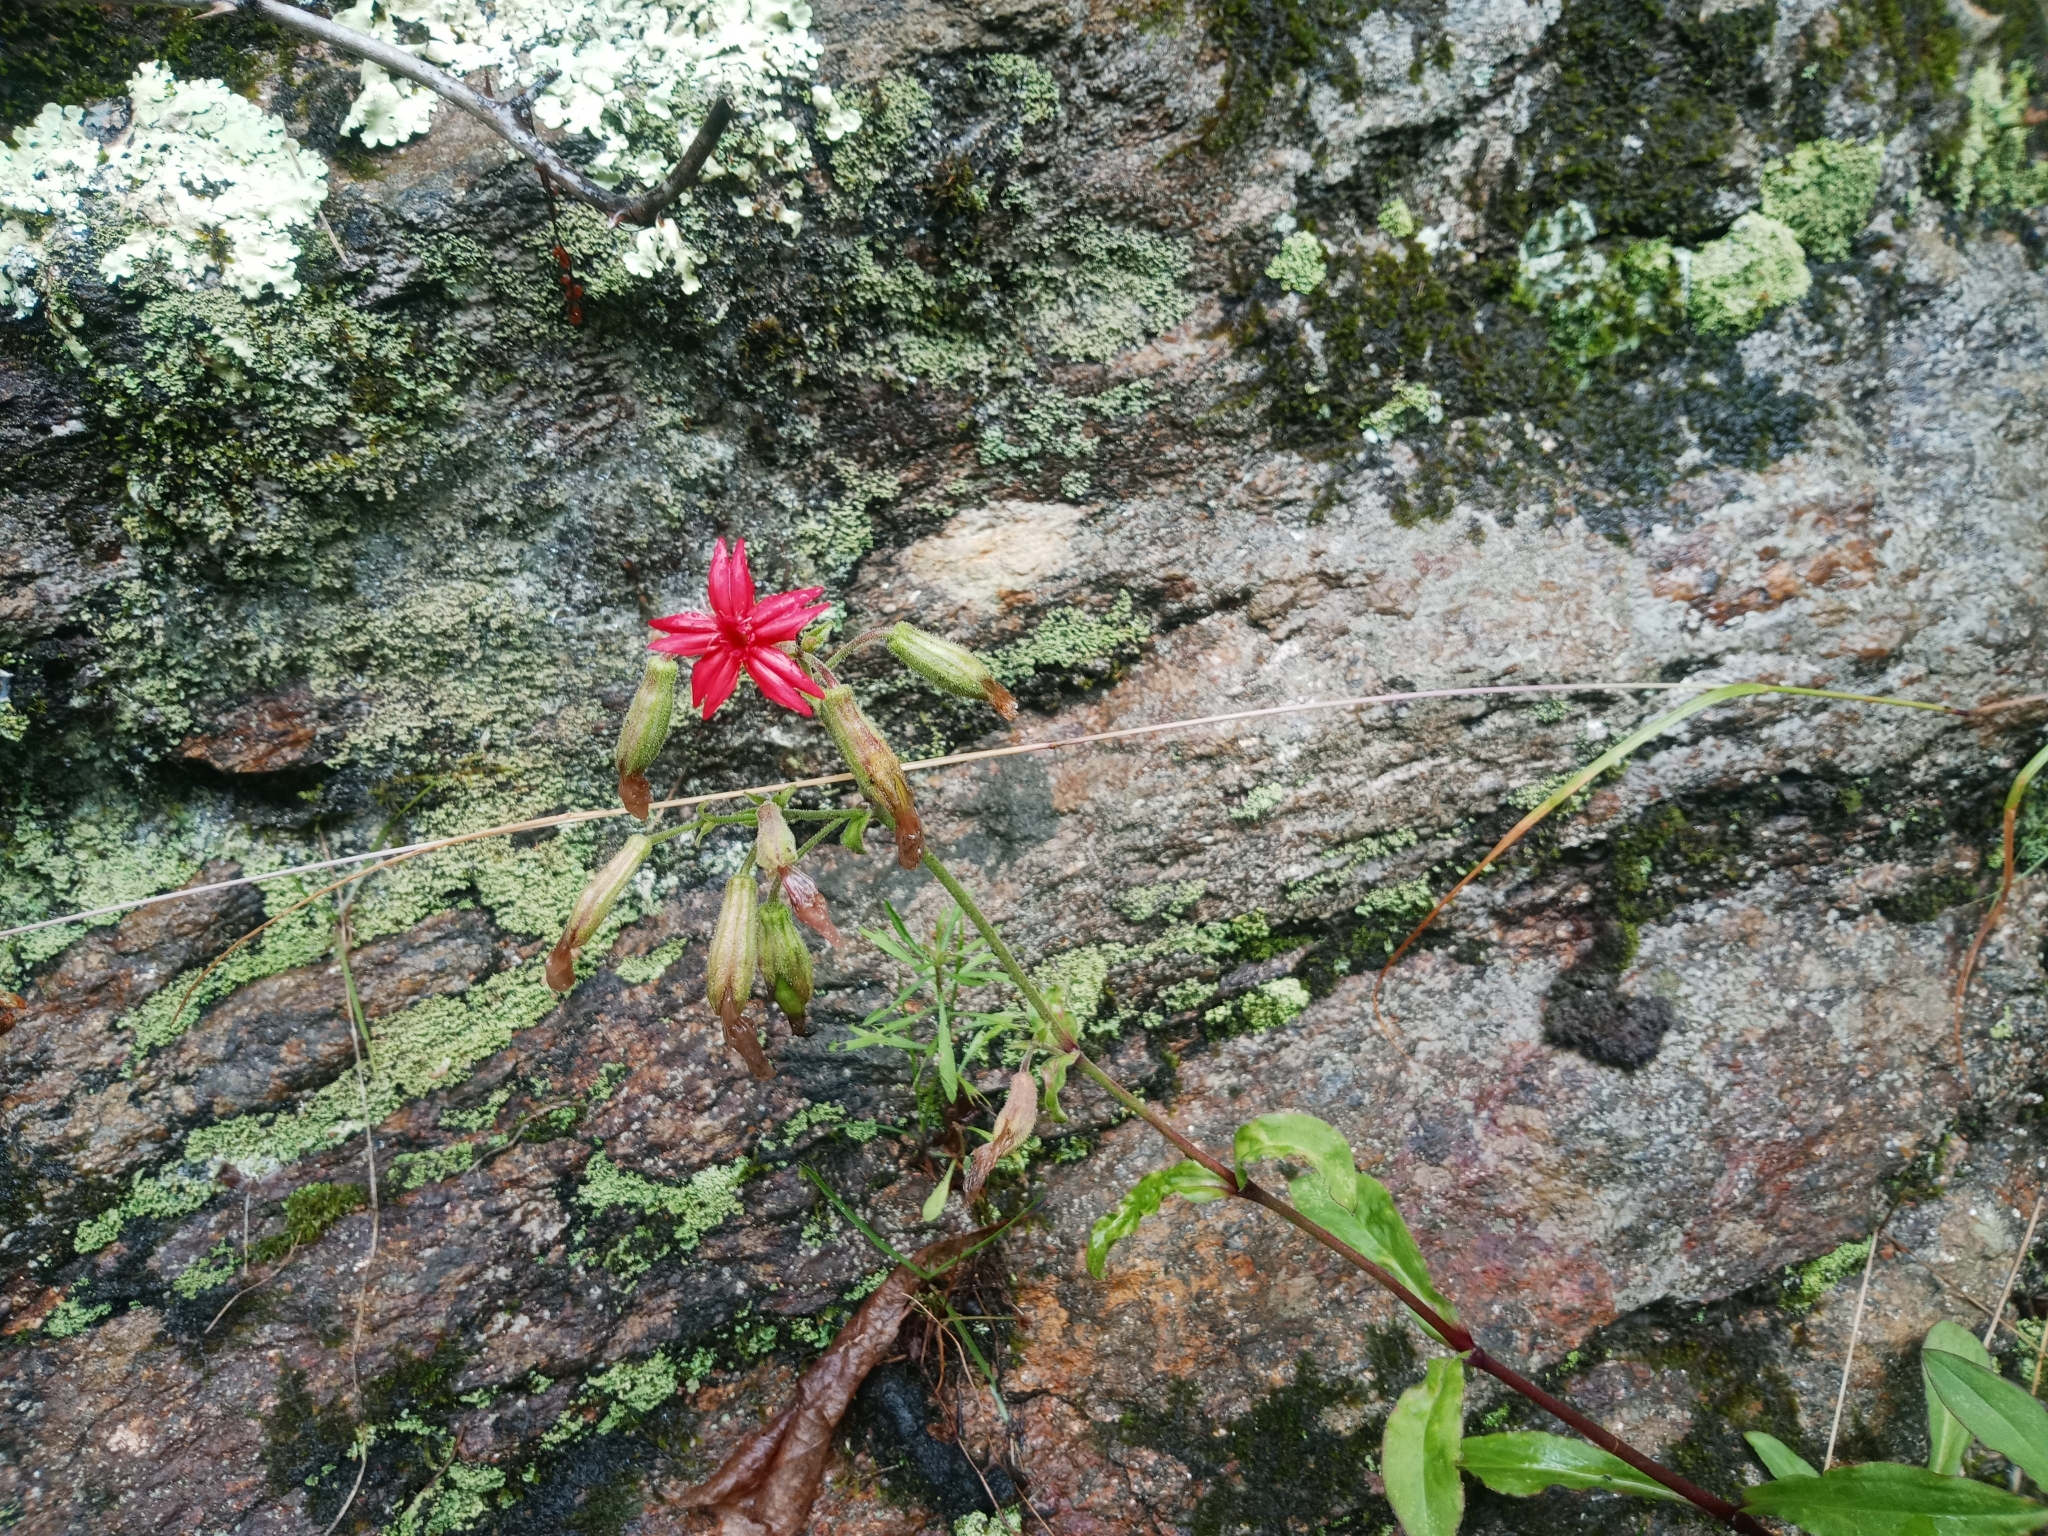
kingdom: Plantae
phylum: Tracheophyta
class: Magnoliopsida
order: Caryophyllales
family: Caryophyllaceae
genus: Silene
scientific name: Silene virginica
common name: Fire-pink
